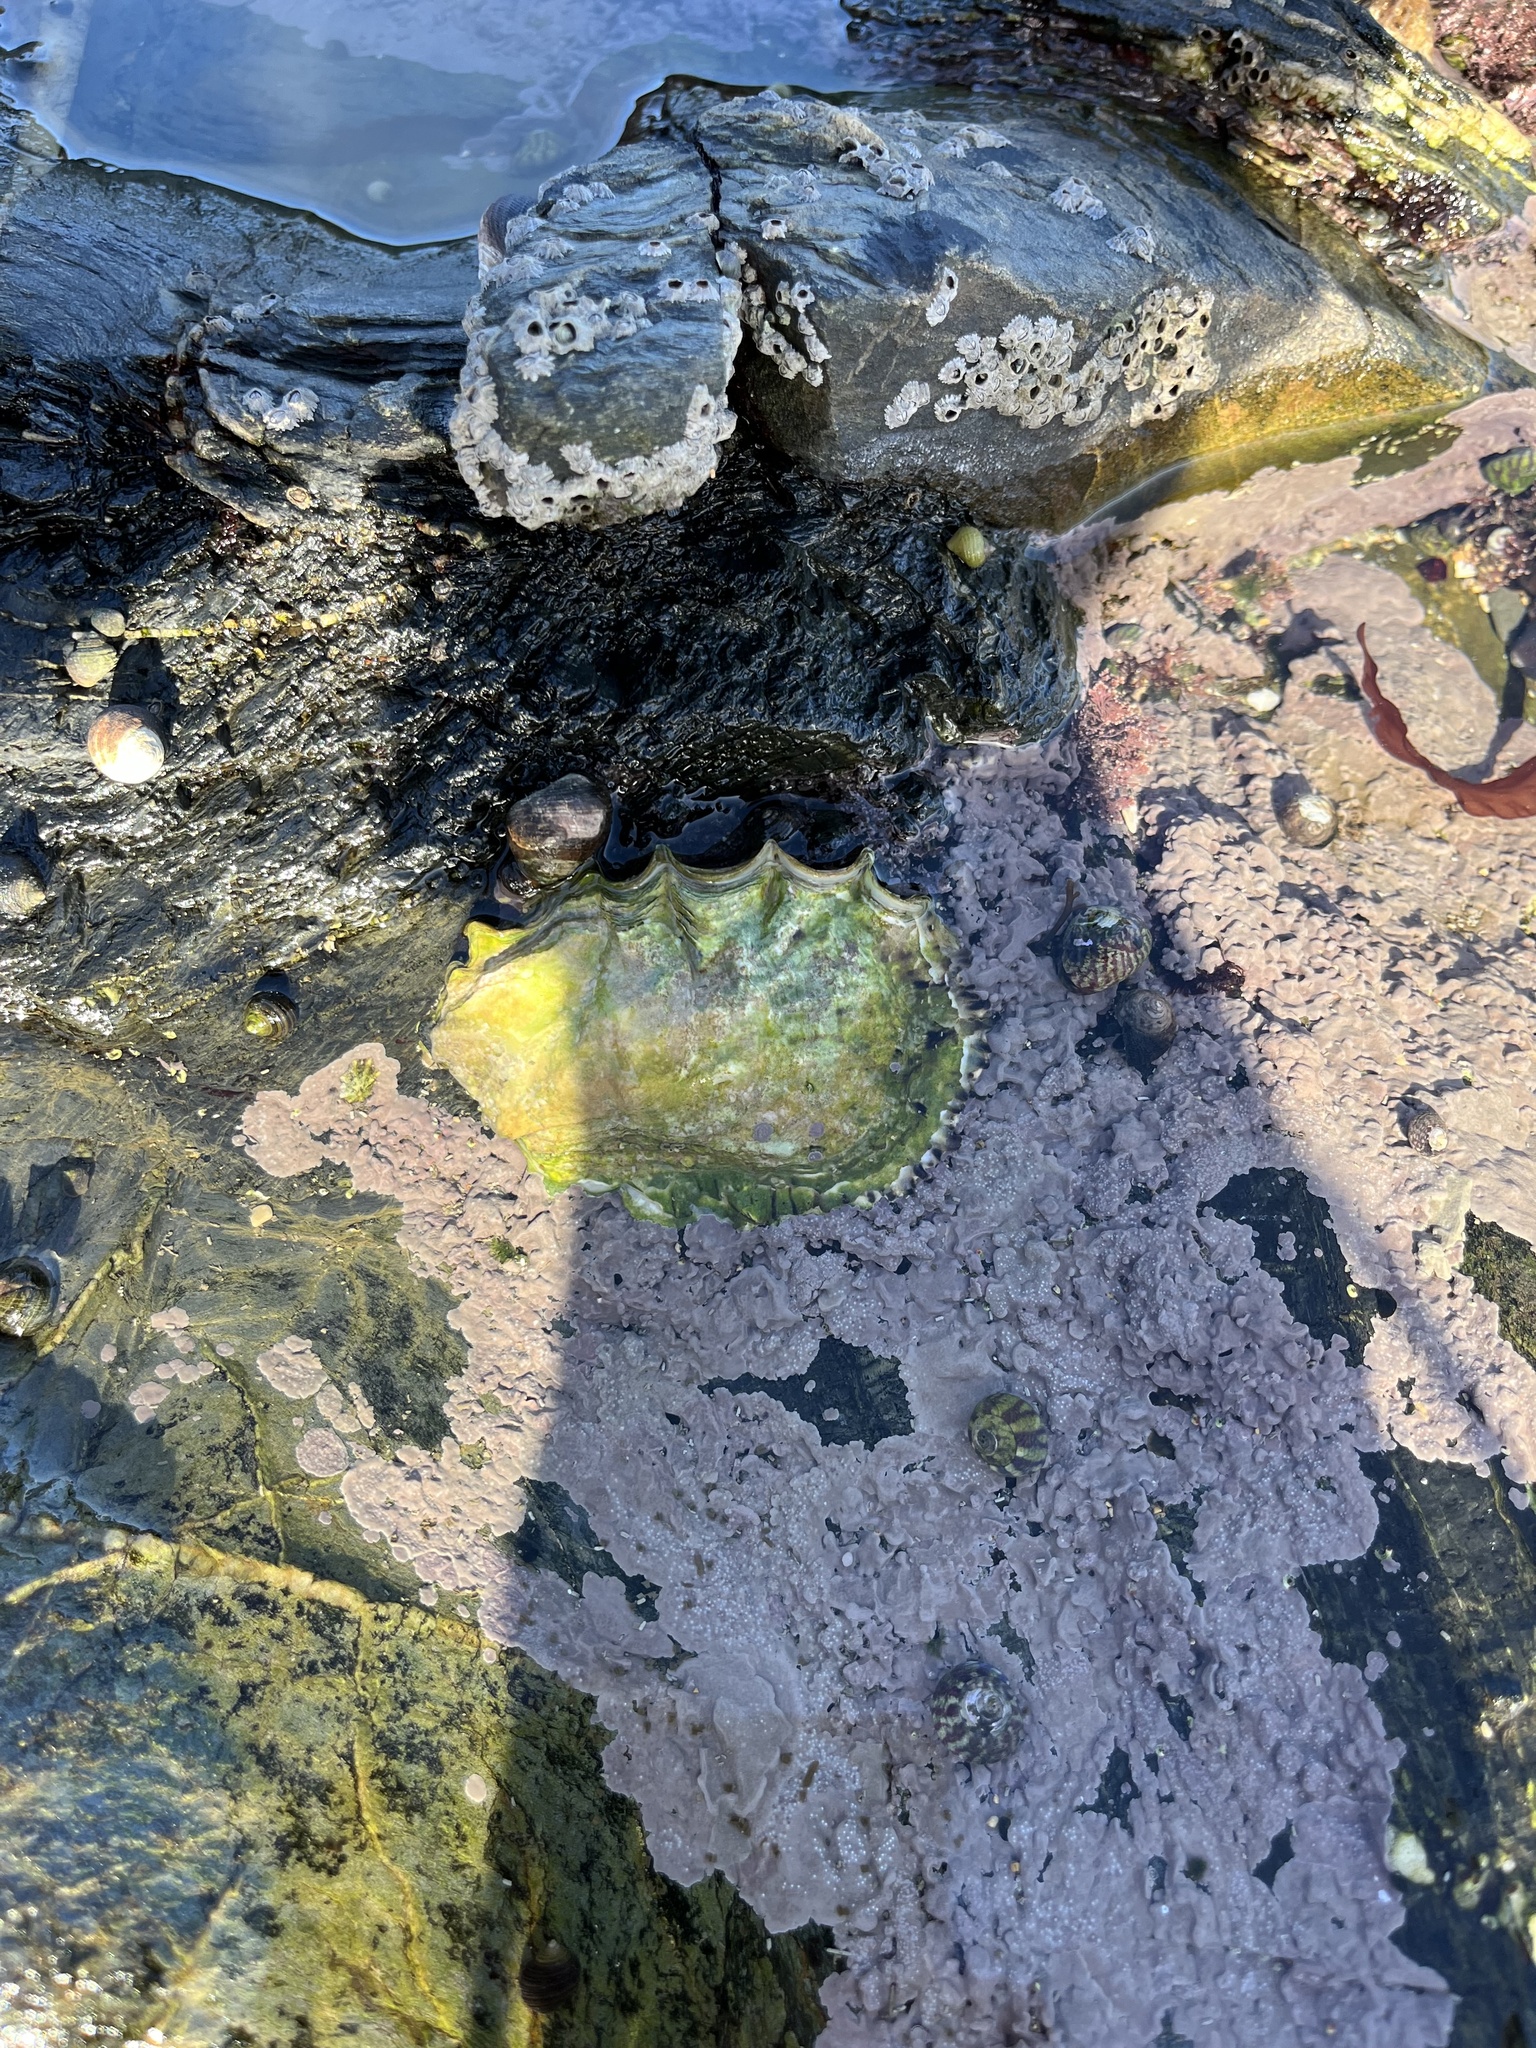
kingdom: Animalia
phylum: Mollusca
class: Bivalvia
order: Ostreida
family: Ostreidae
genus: Magallana
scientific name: Magallana gigas
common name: Pacific oyster
